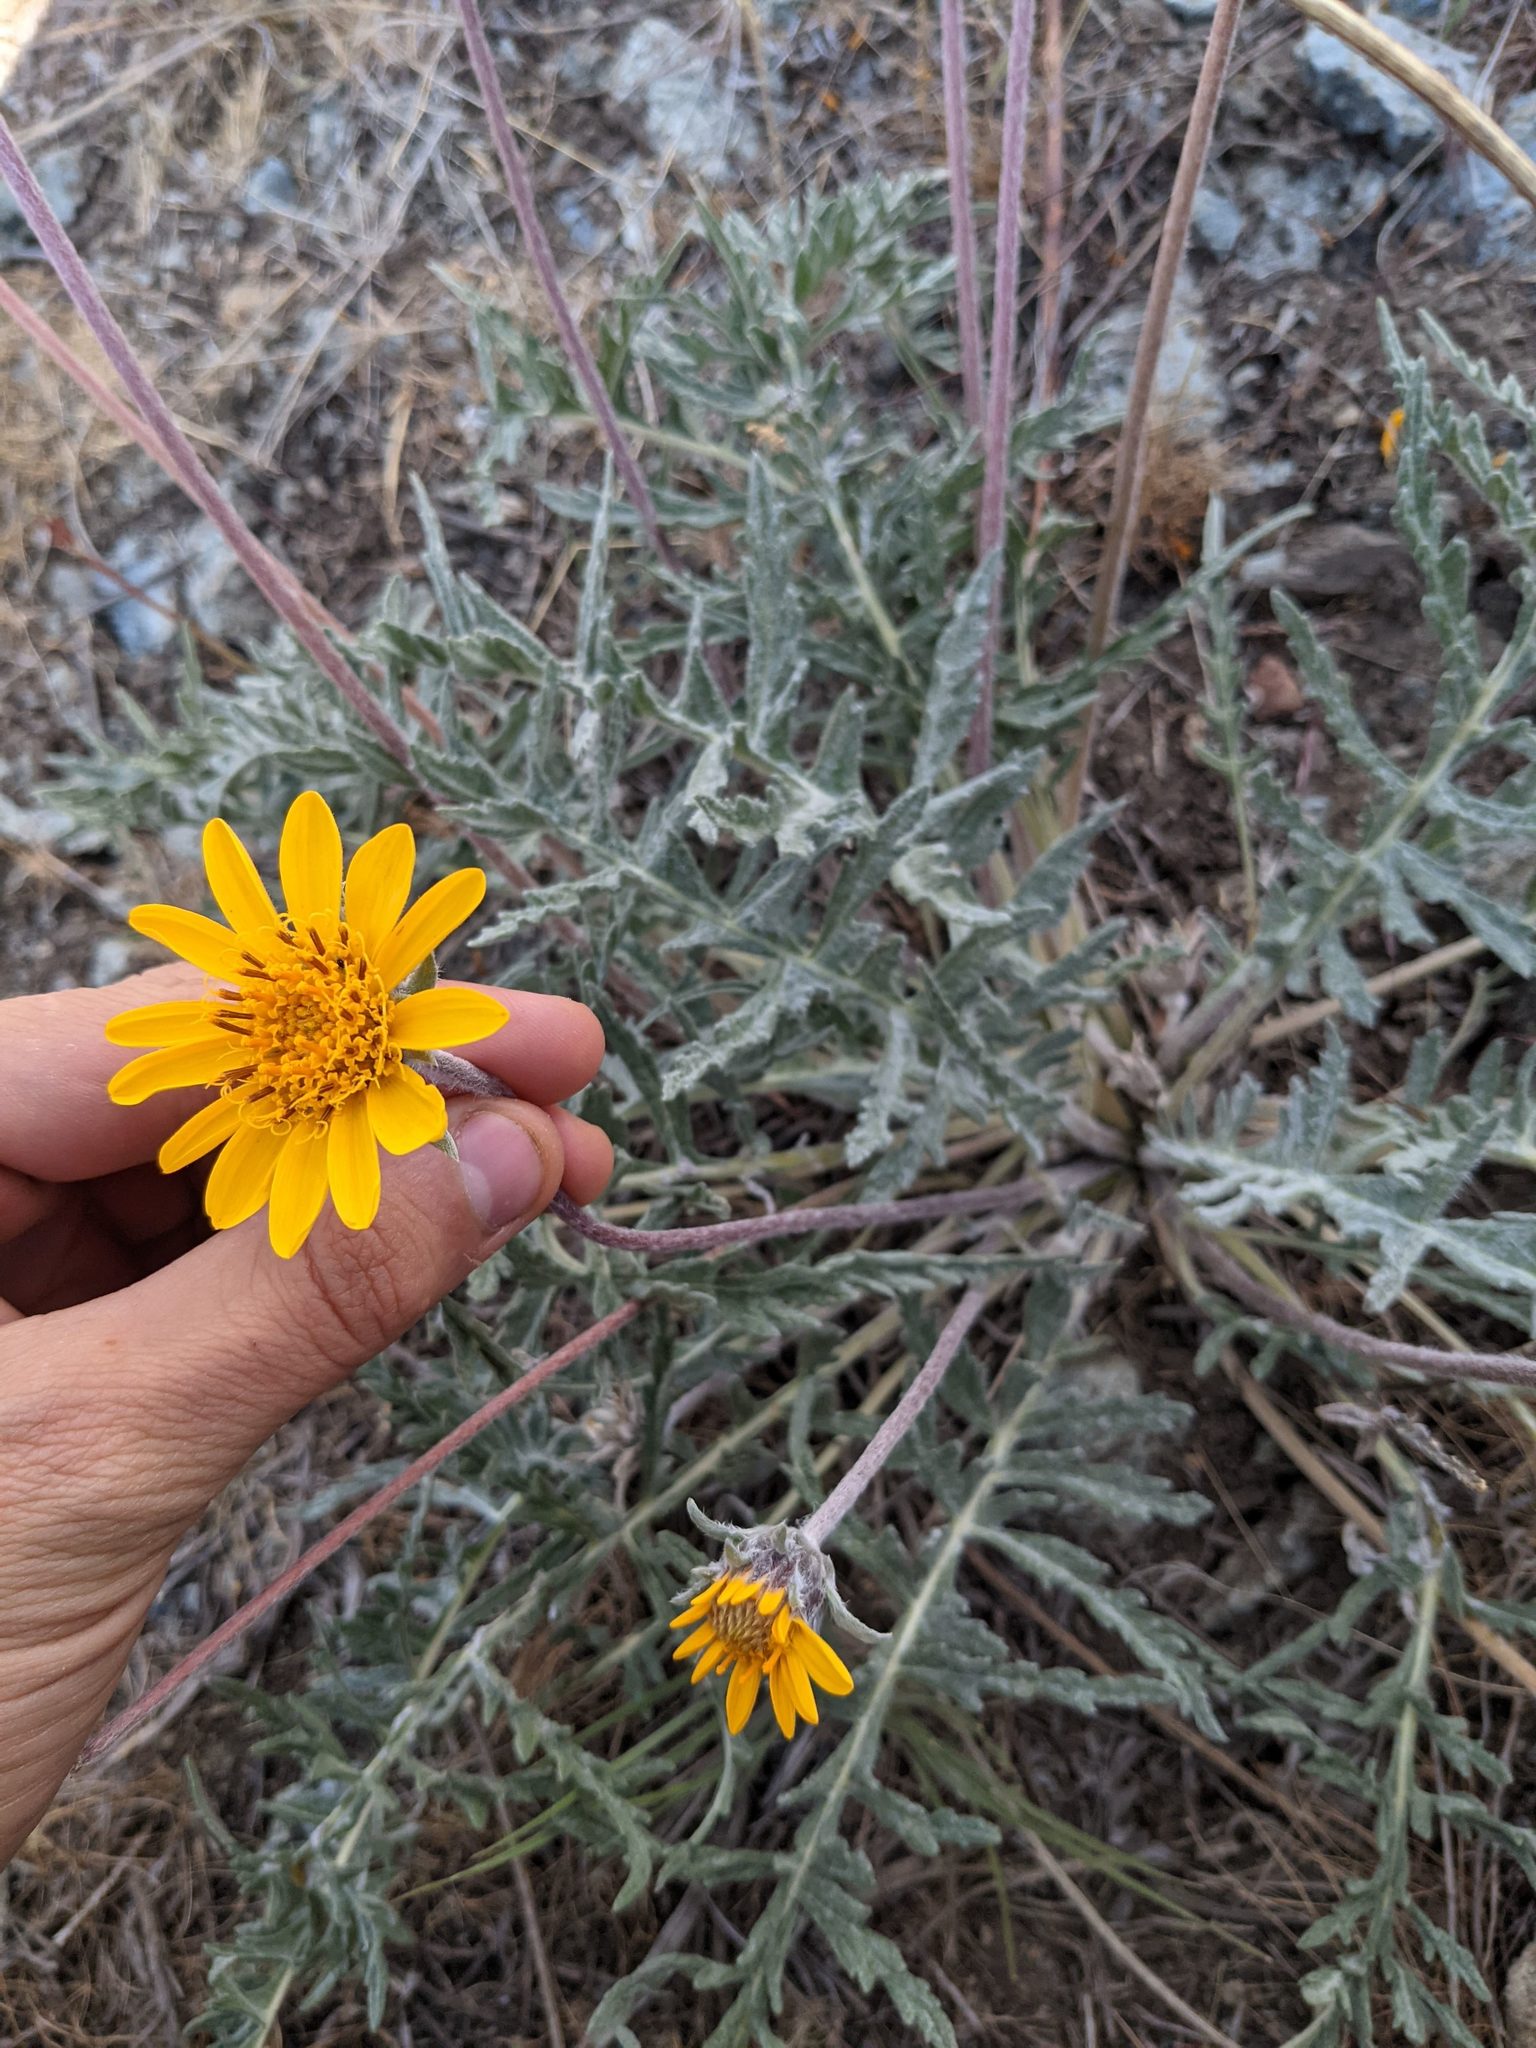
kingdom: Plantae
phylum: Tracheophyta
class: Magnoliopsida
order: Asterales
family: Asteraceae
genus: Balsamorhiza
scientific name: Balsamorhiza lanata
